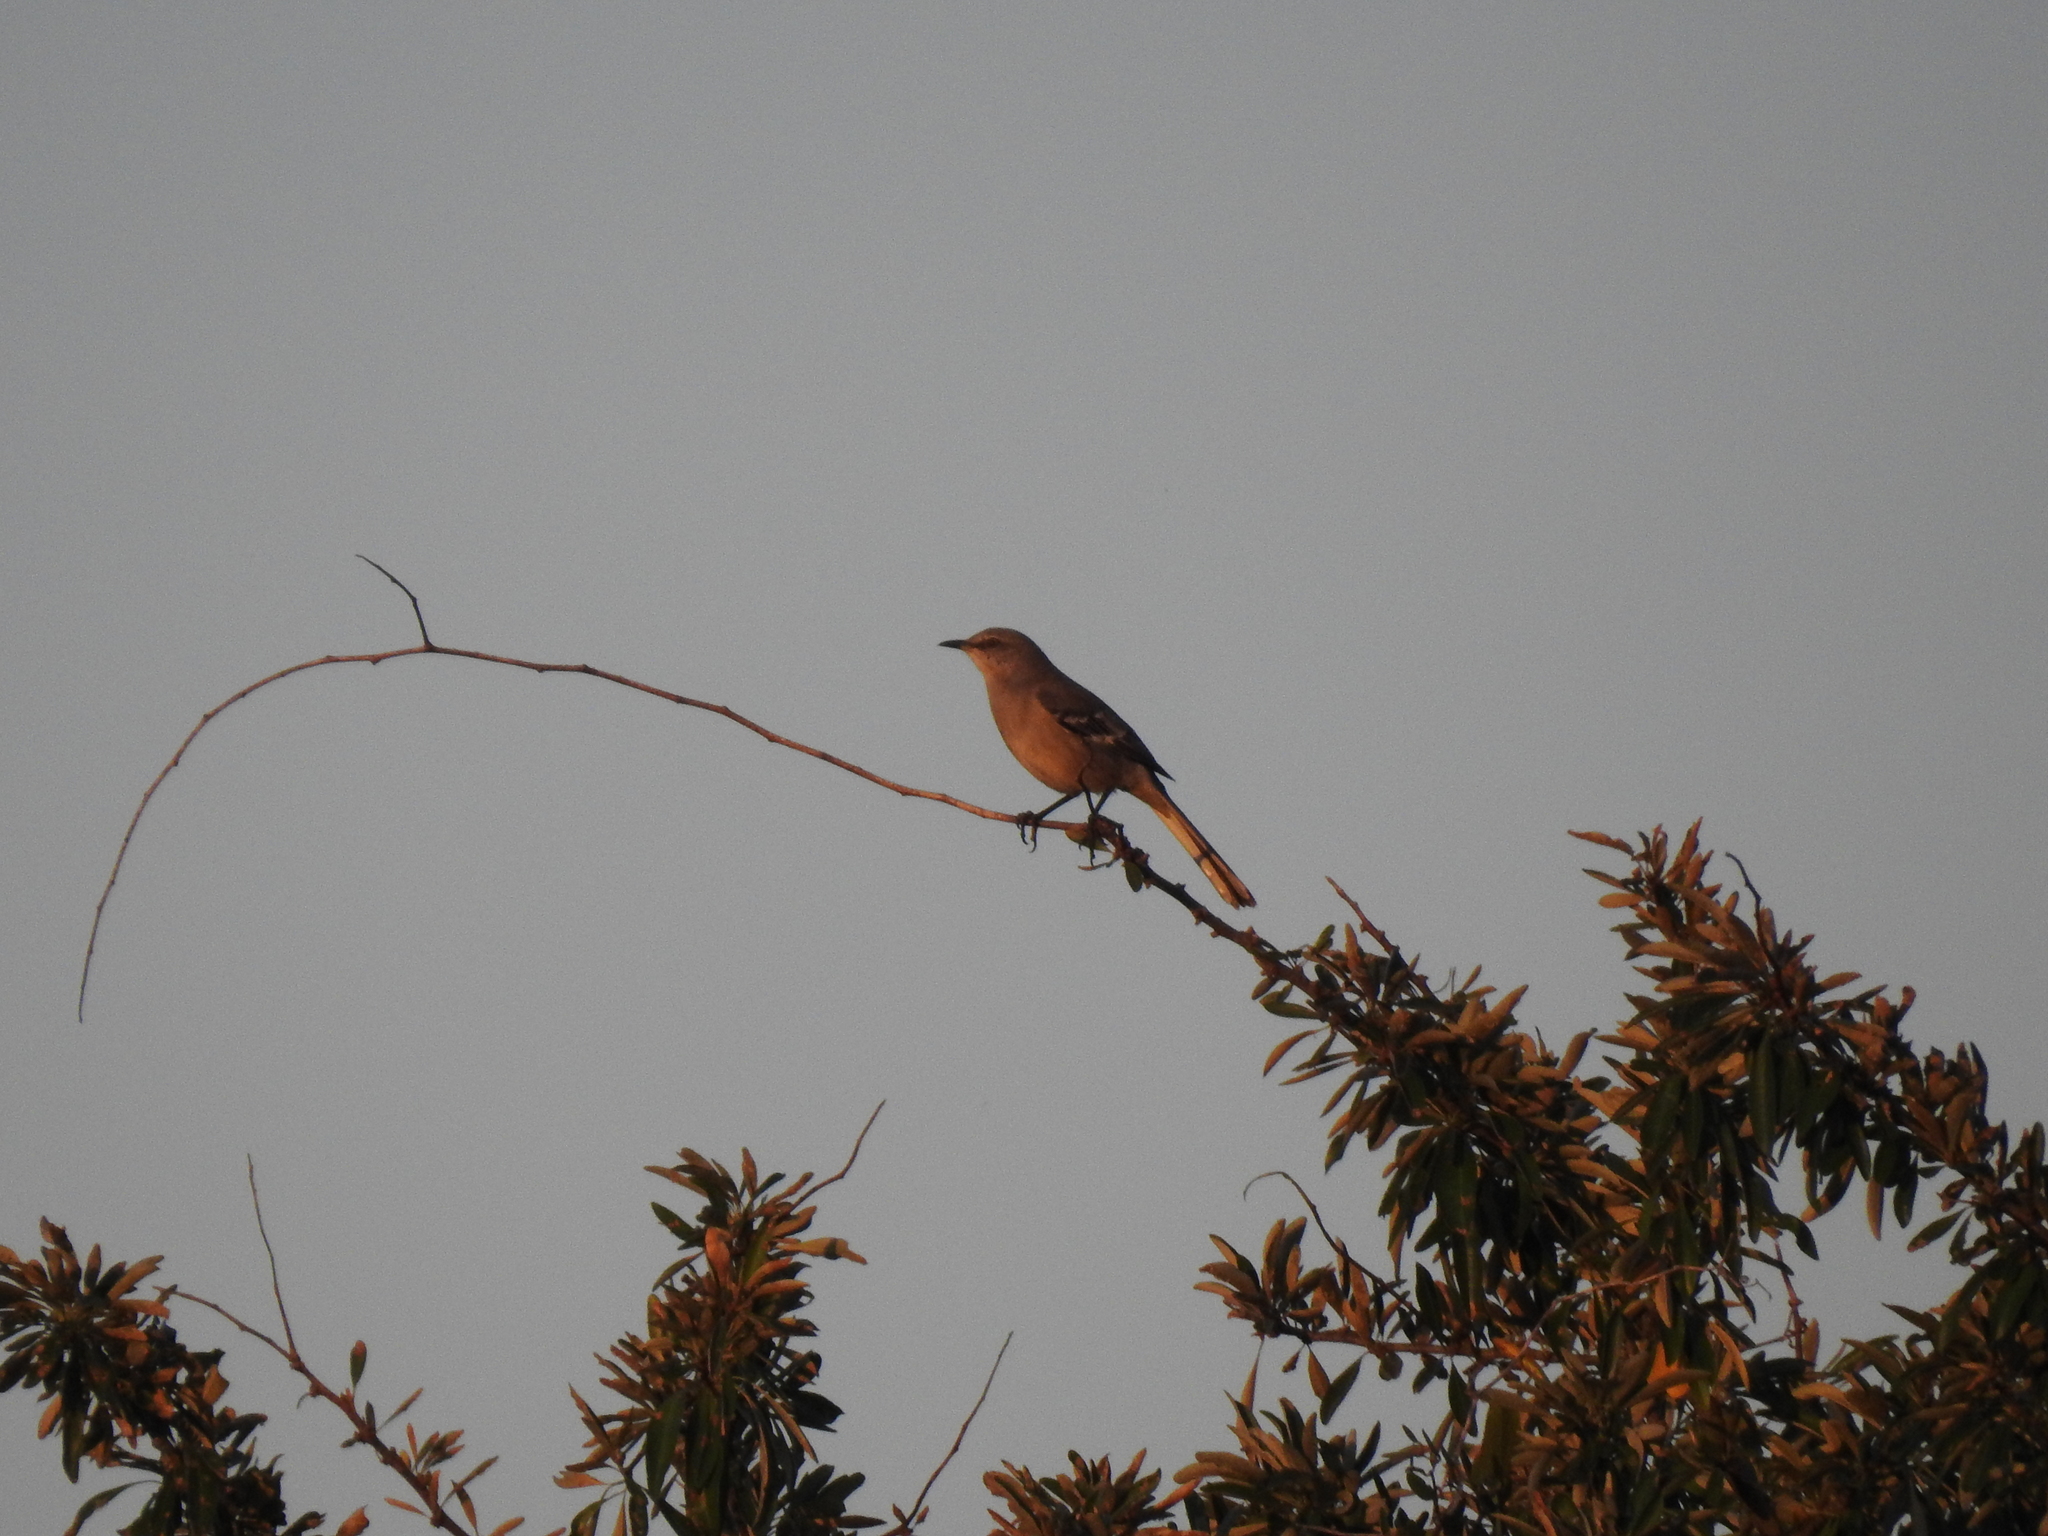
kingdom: Animalia
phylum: Chordata
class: Aves
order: Passeriformes
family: Mimidae
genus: Mimus
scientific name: Mimus polyglottos
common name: Northern mockingbird
